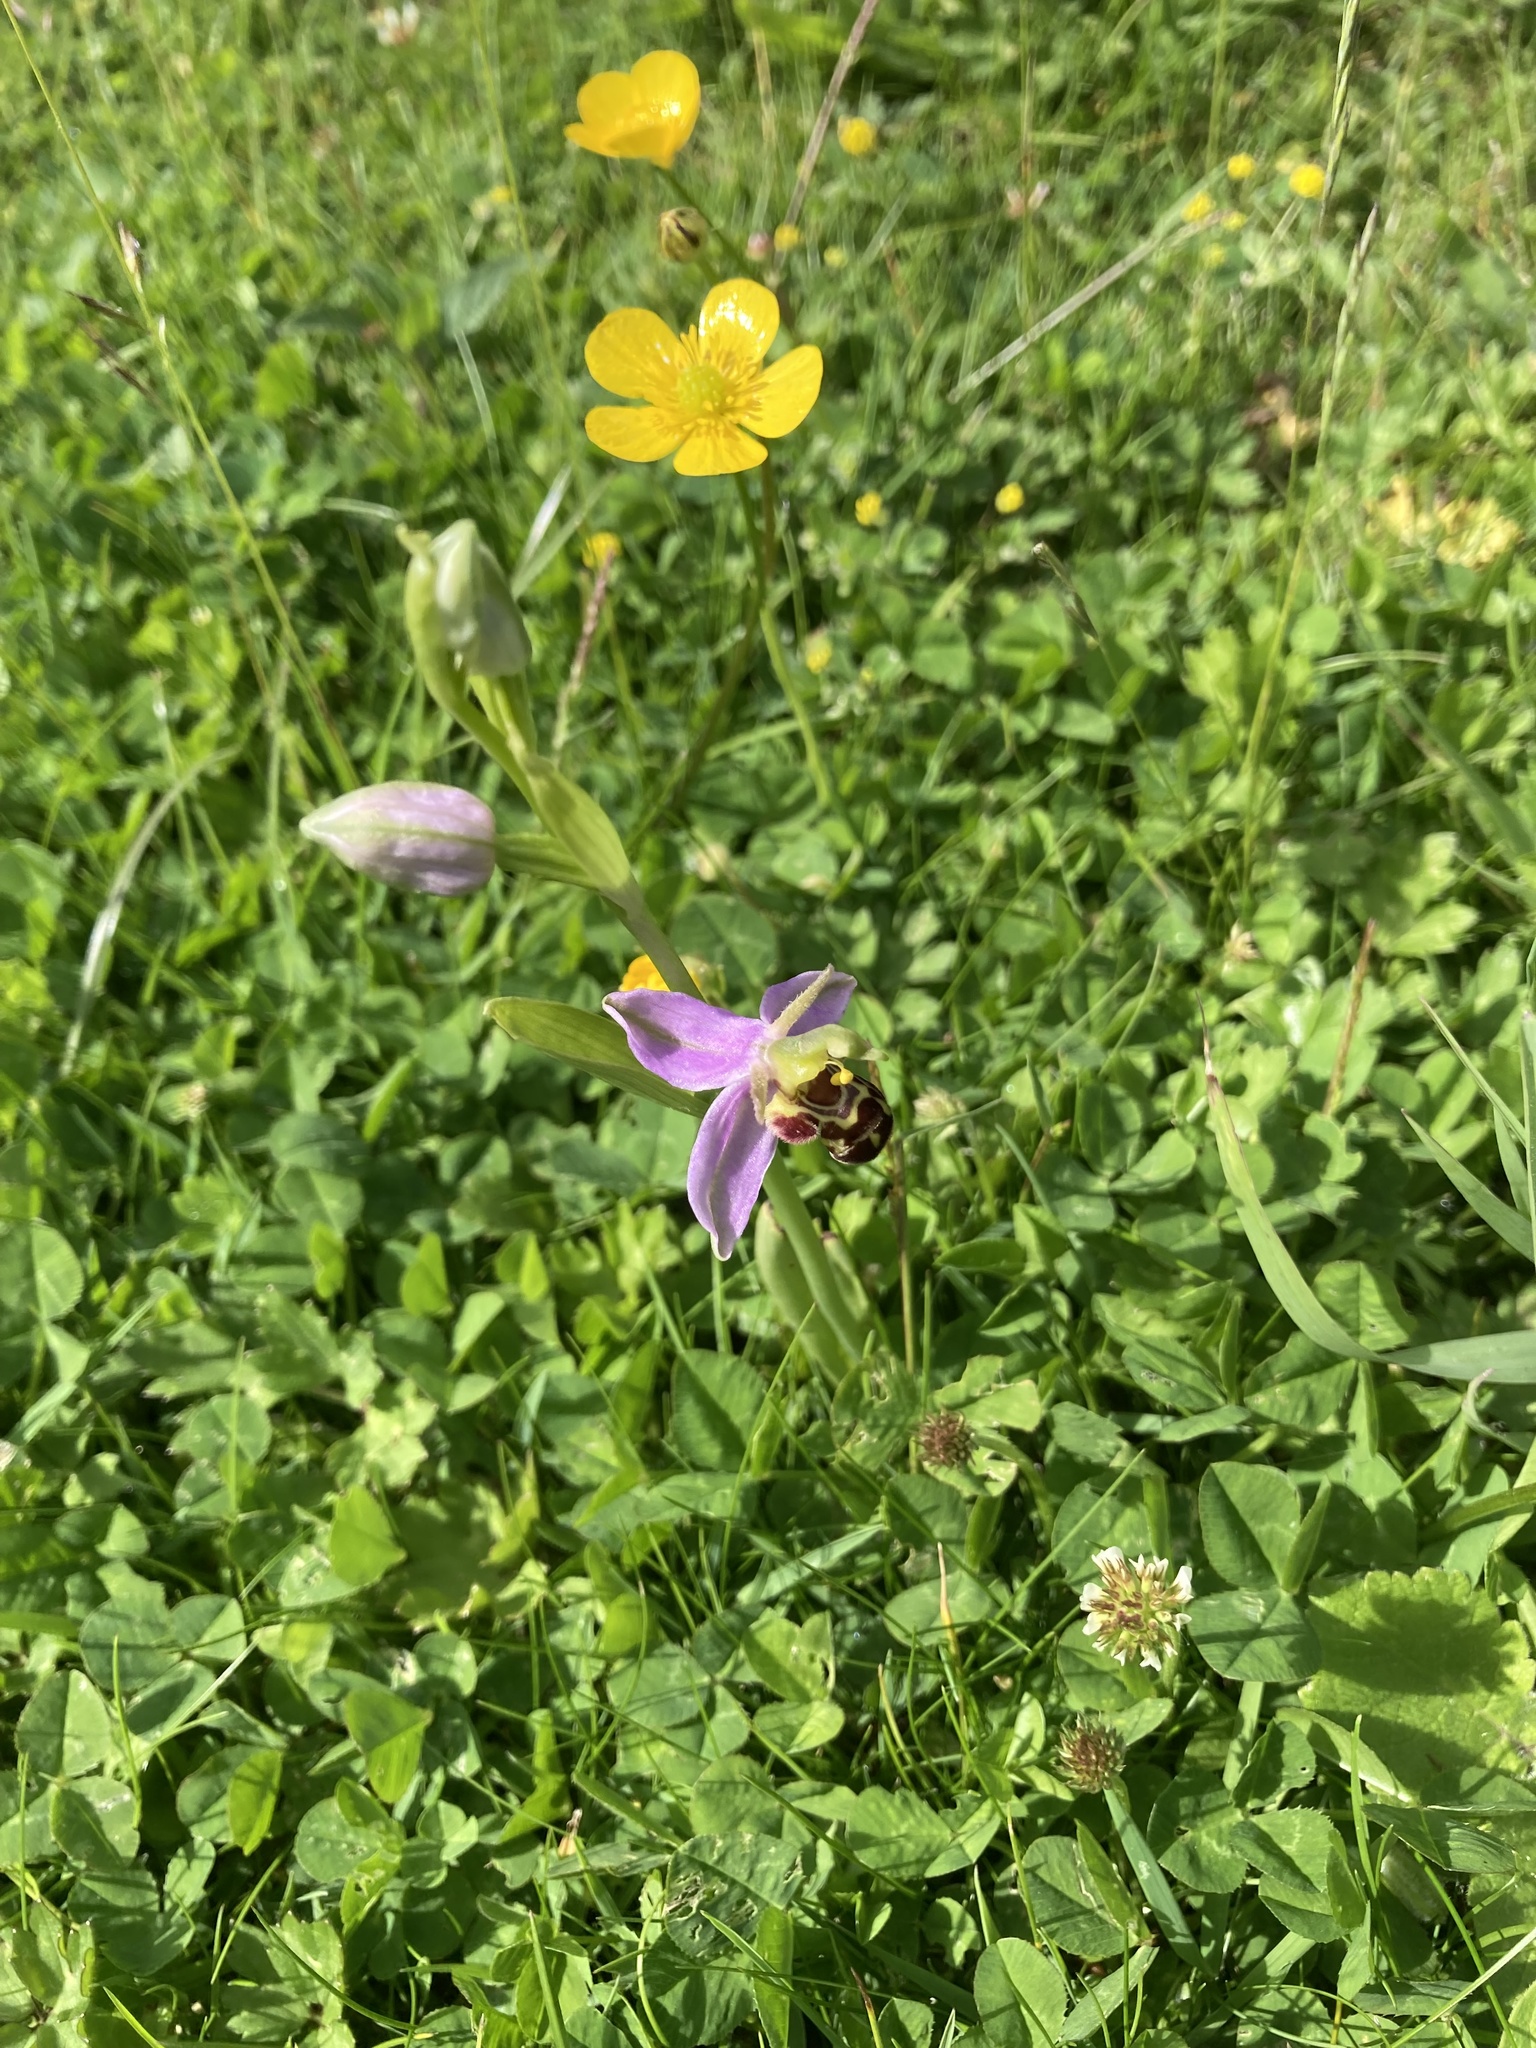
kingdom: Plantae
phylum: Tracheophyta
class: Liliopsida
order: Asparagales
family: Orchidaceae
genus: Ophrys
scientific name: Ophrys apifera
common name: Bee orchid
